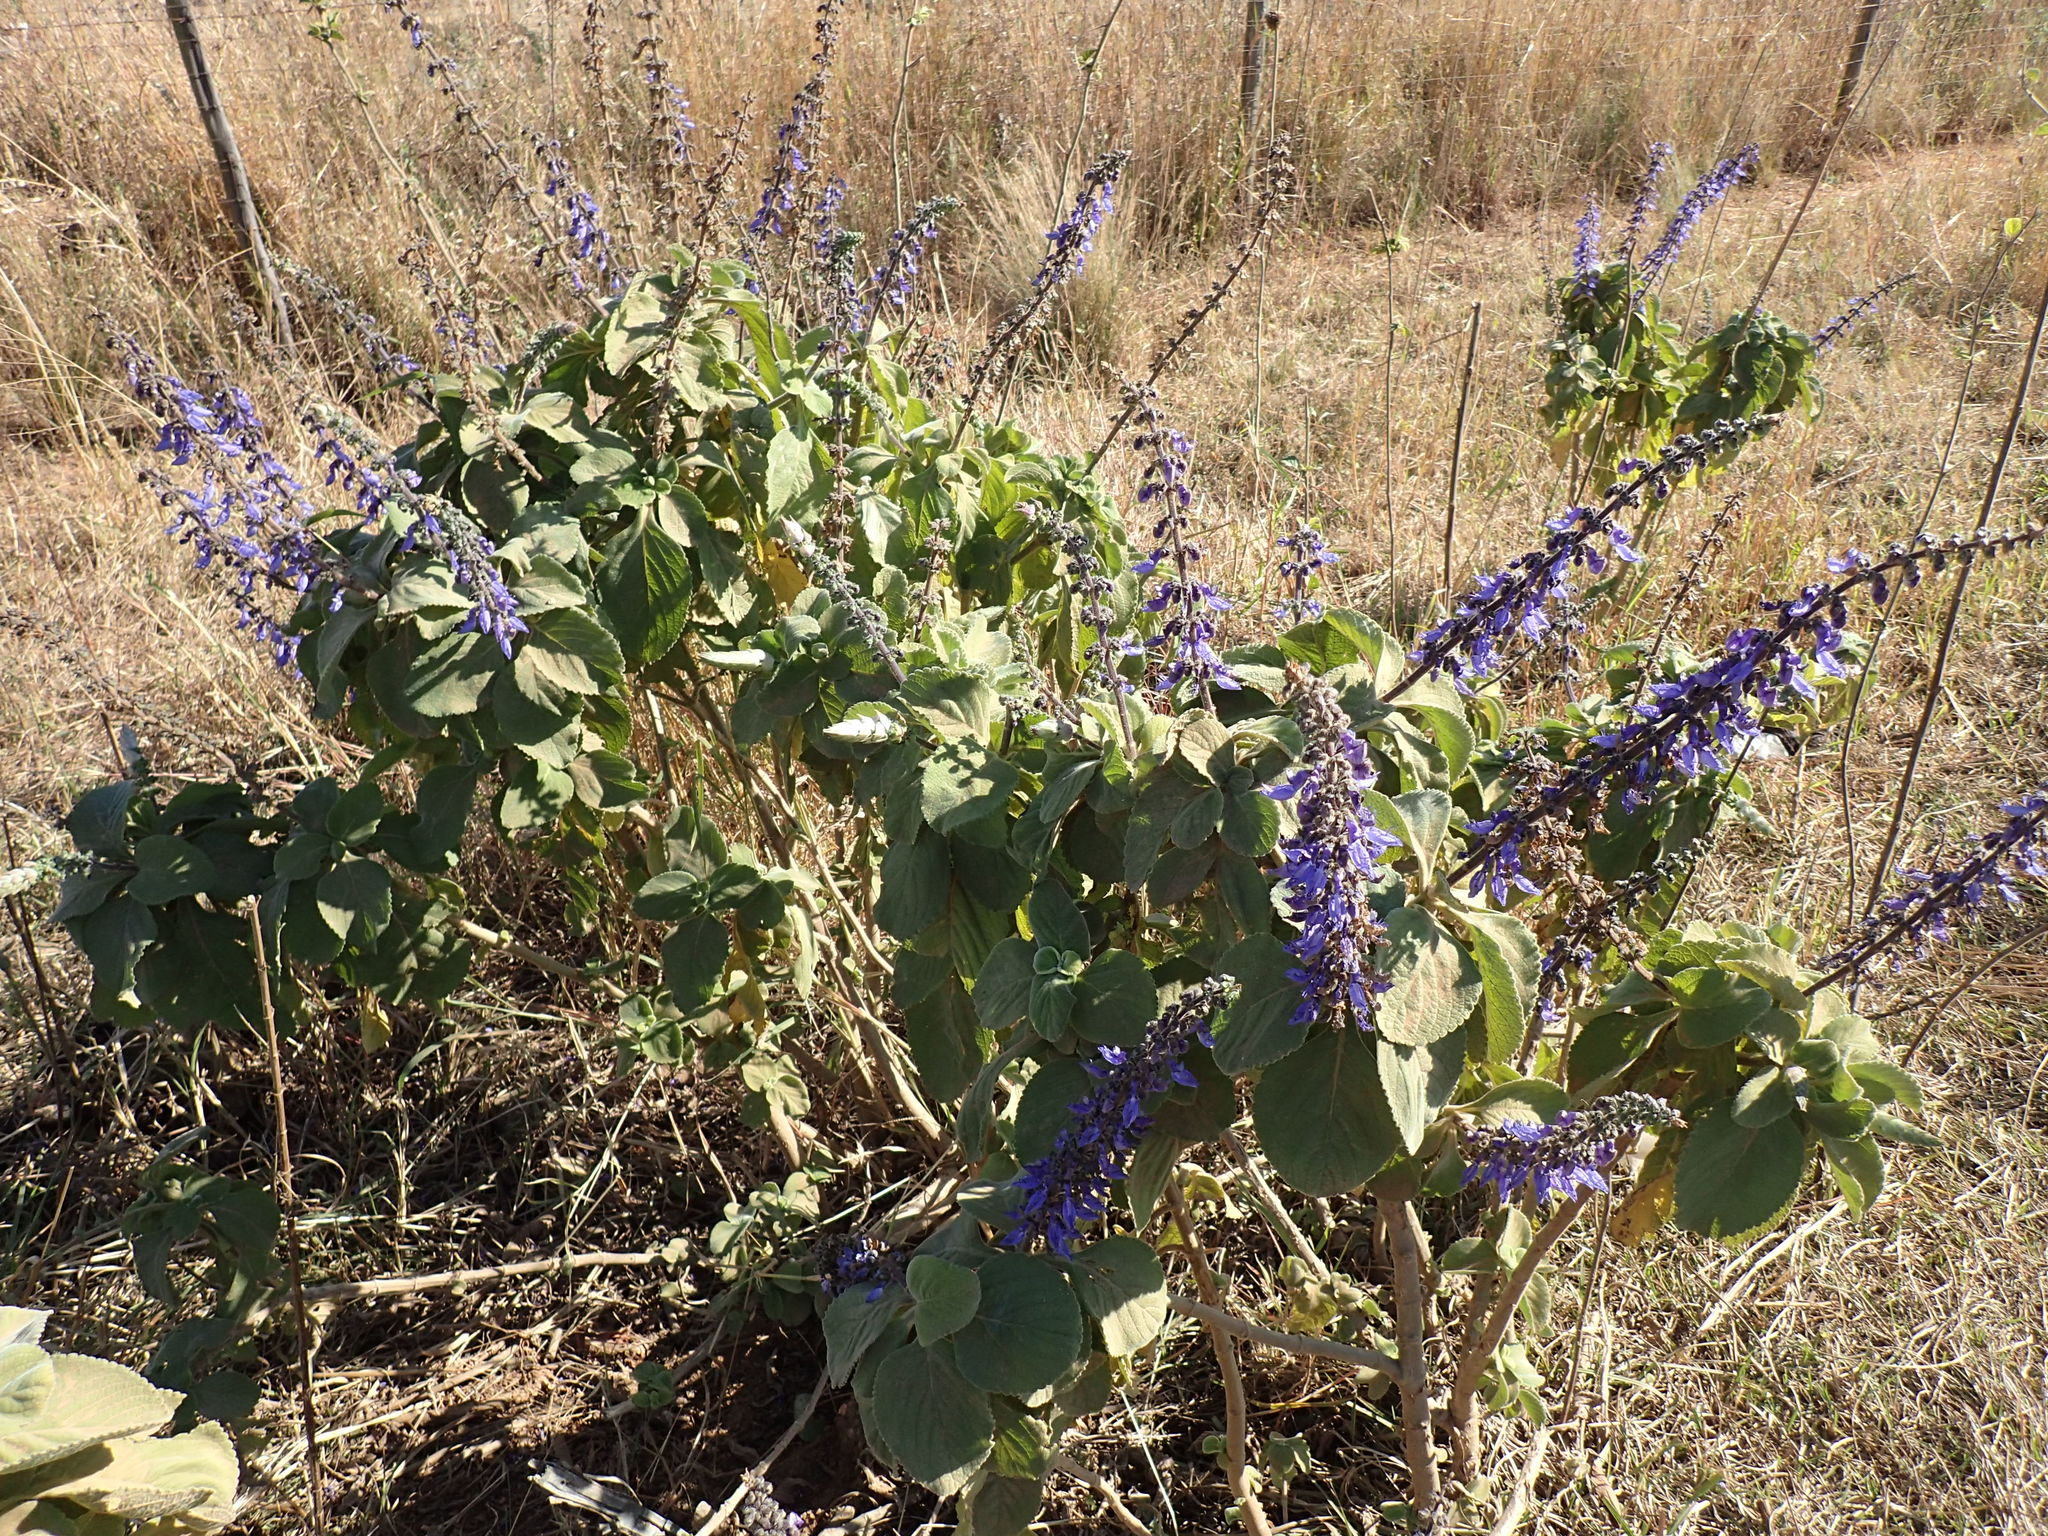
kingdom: Plantae
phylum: Tracheophyta
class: Magnoliopsida
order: Lamiales
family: Lamiaceae
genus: Coleus
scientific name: Coleus barbatus
